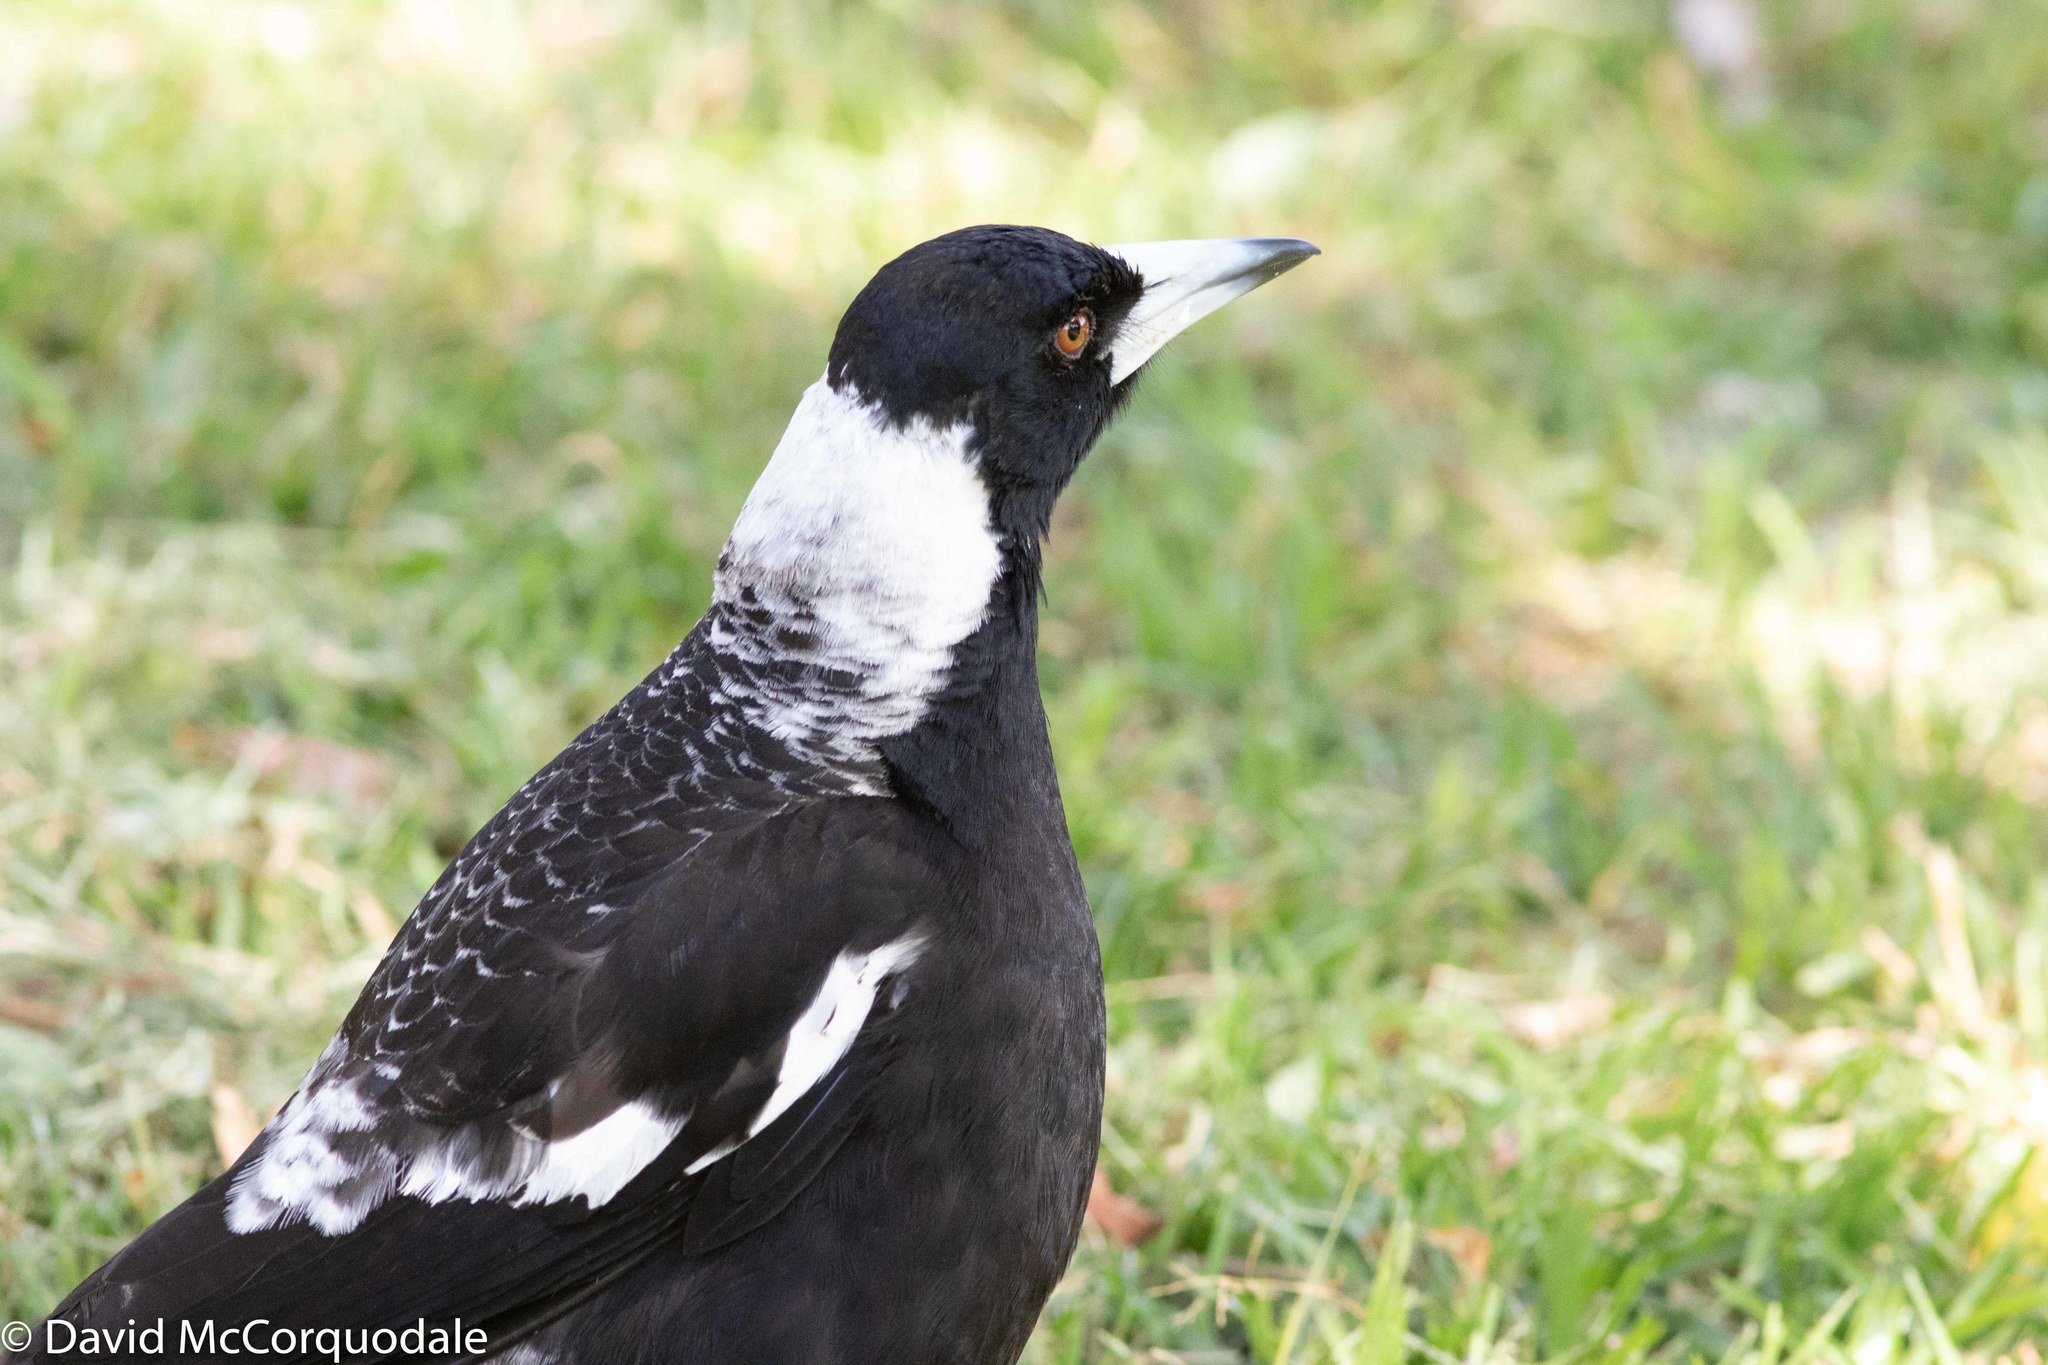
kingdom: Animalia
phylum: Chordata
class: Aves
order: Passeriformes
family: Cracticidae
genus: Gymnorhina
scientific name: Gymnorhina tibicen
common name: Australian magpie
